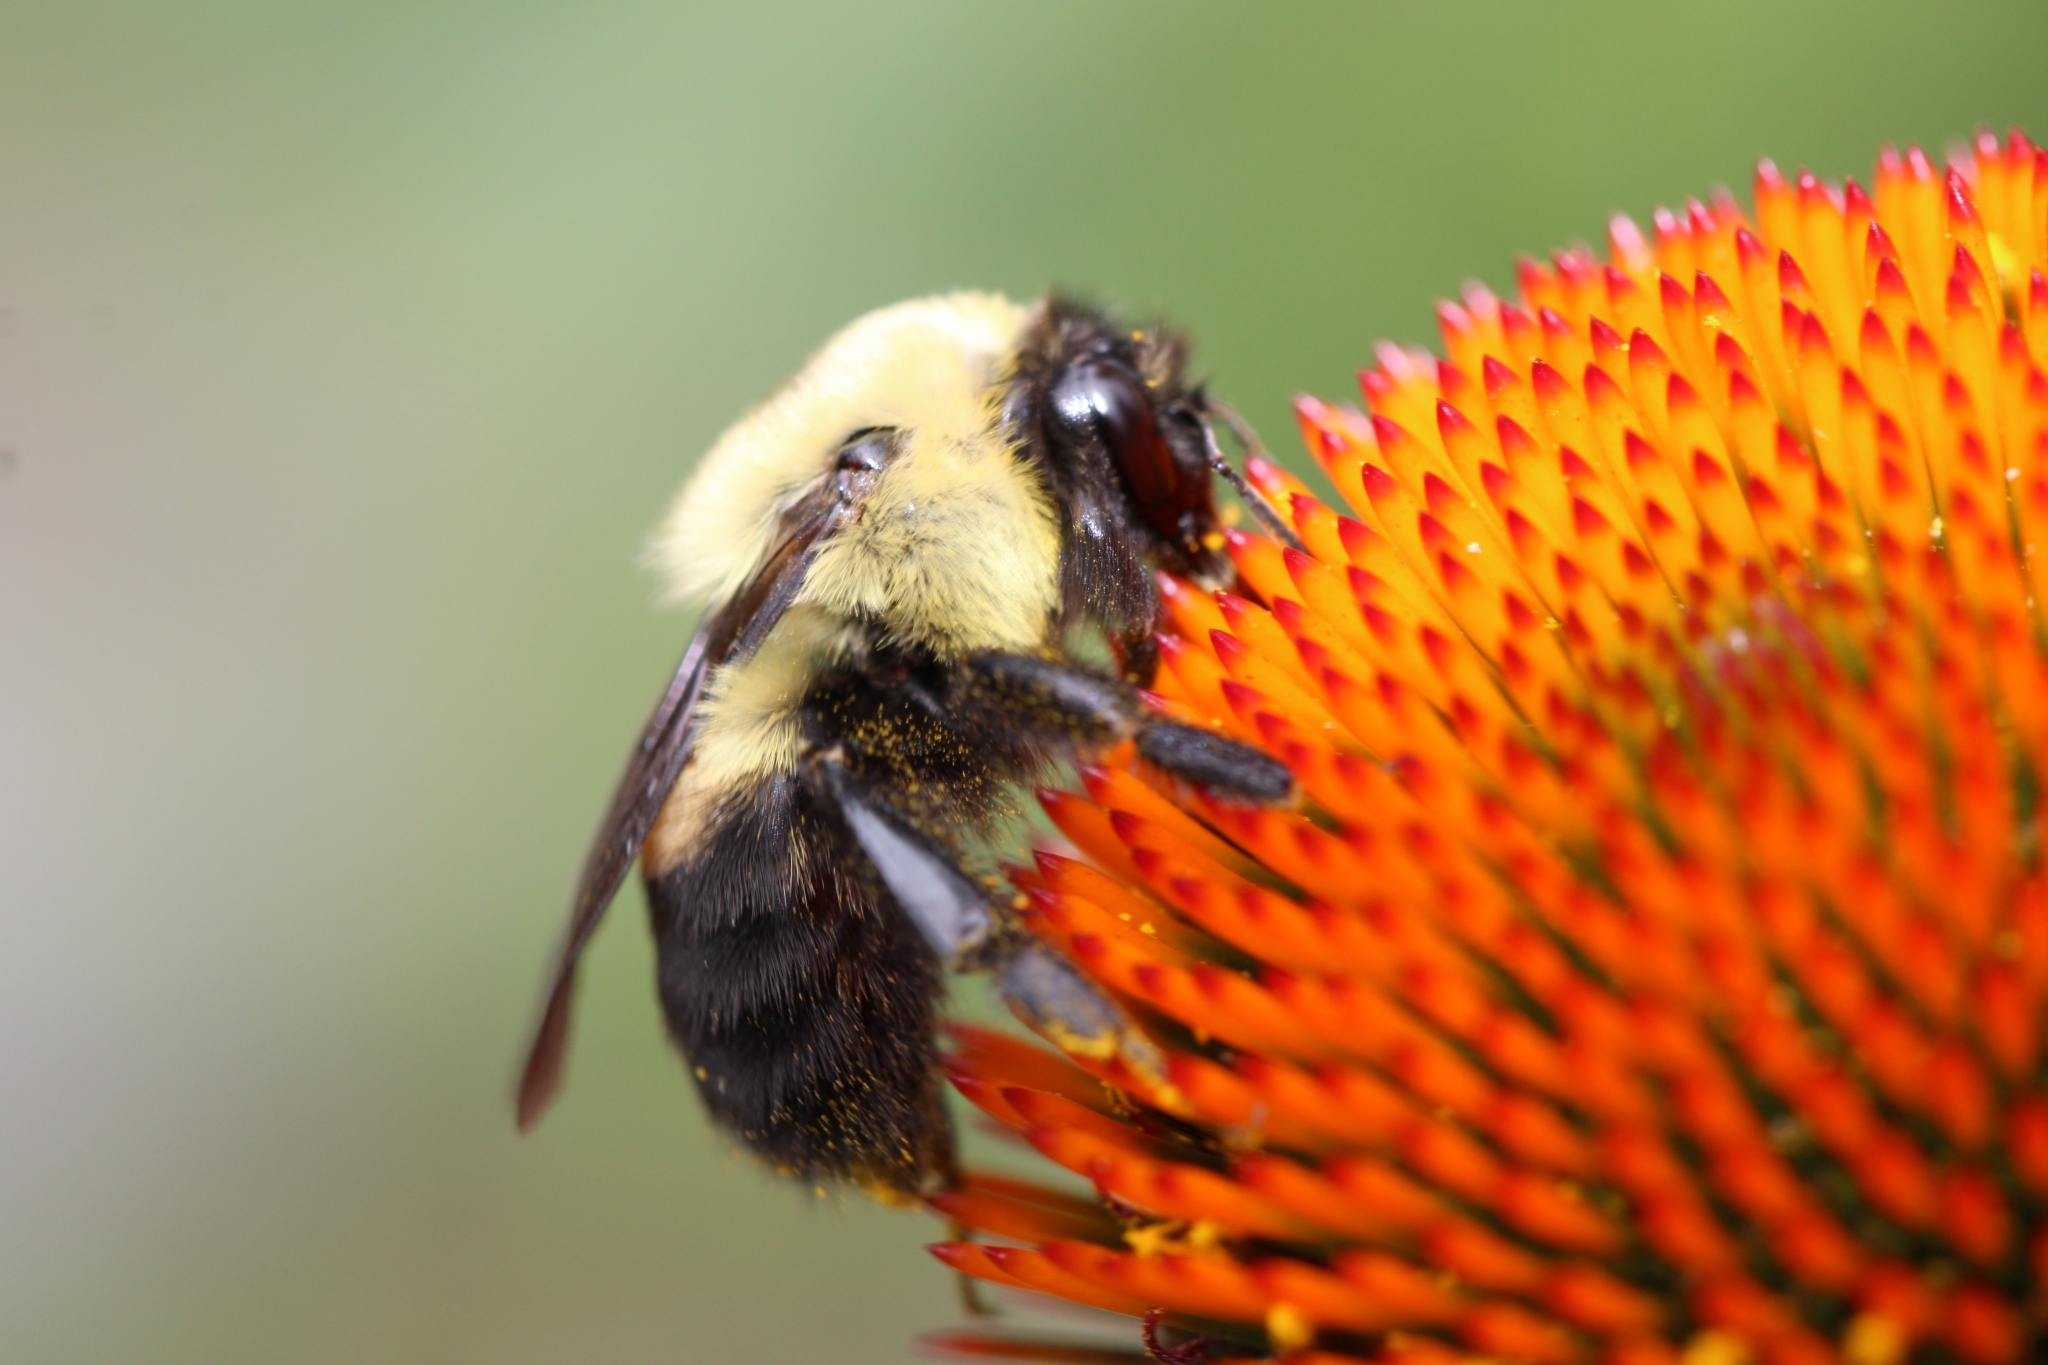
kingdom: Animalia
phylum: Arthropoda
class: Insecta
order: Hymenoptera
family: Apidae
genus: Bombus
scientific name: Bombus griseocollis
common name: Brown-belted bumble bee
